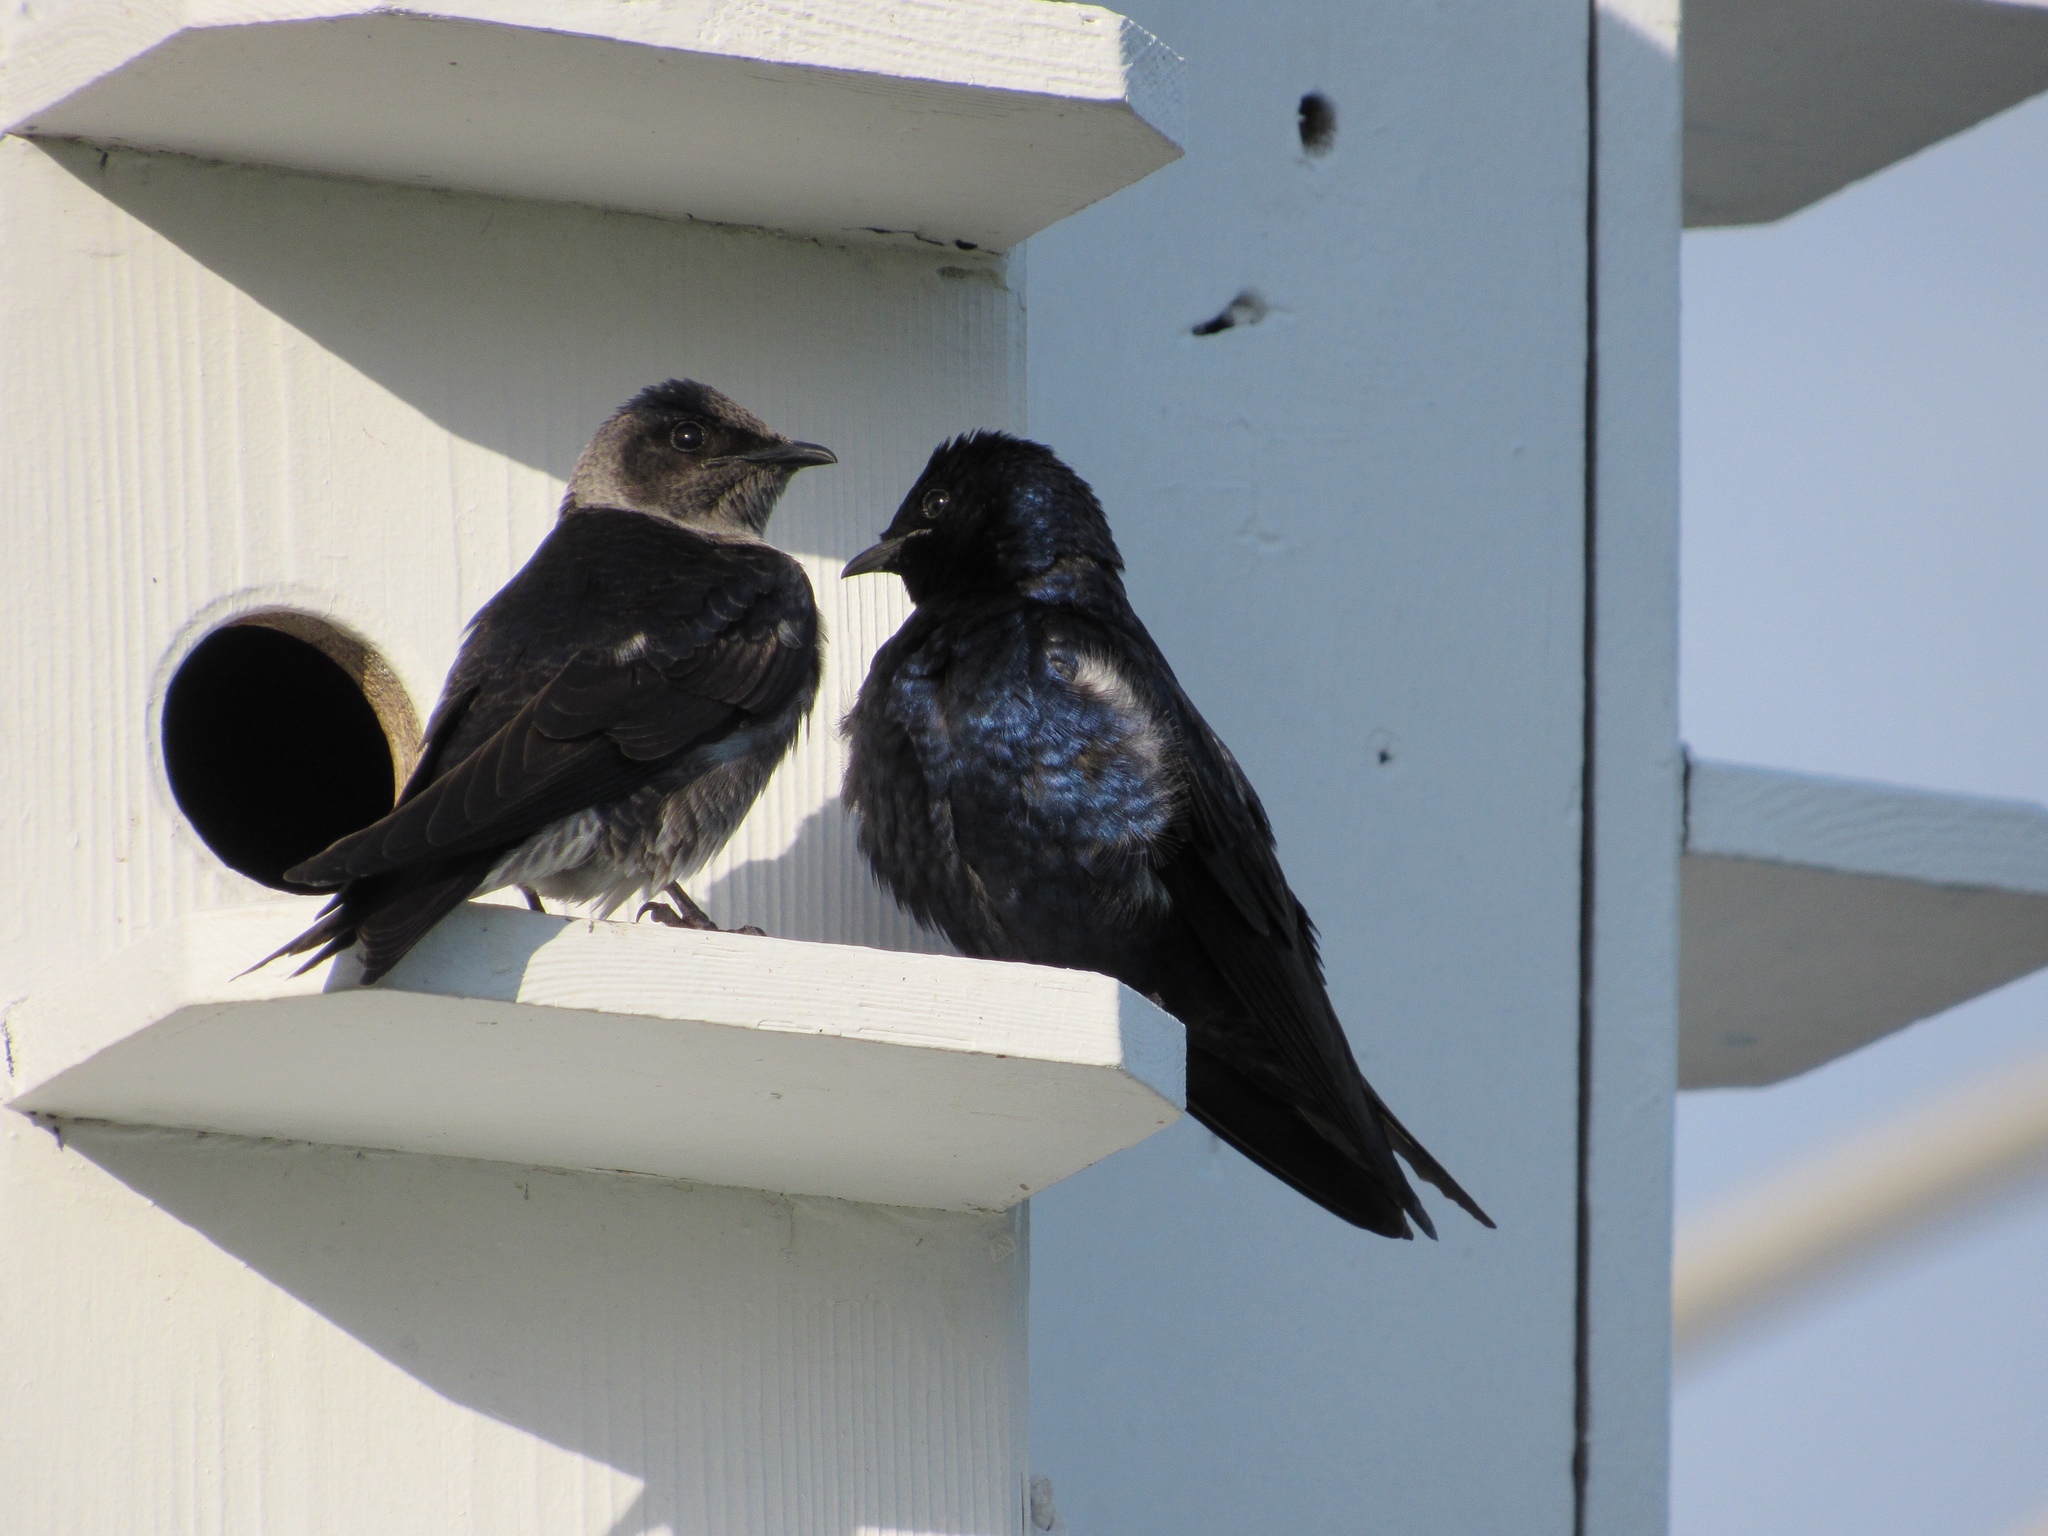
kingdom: Animalia
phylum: Chordata
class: Aves
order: Passeriformes
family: Hirundinidae
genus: Progne
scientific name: Progne subis
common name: Purple martin
